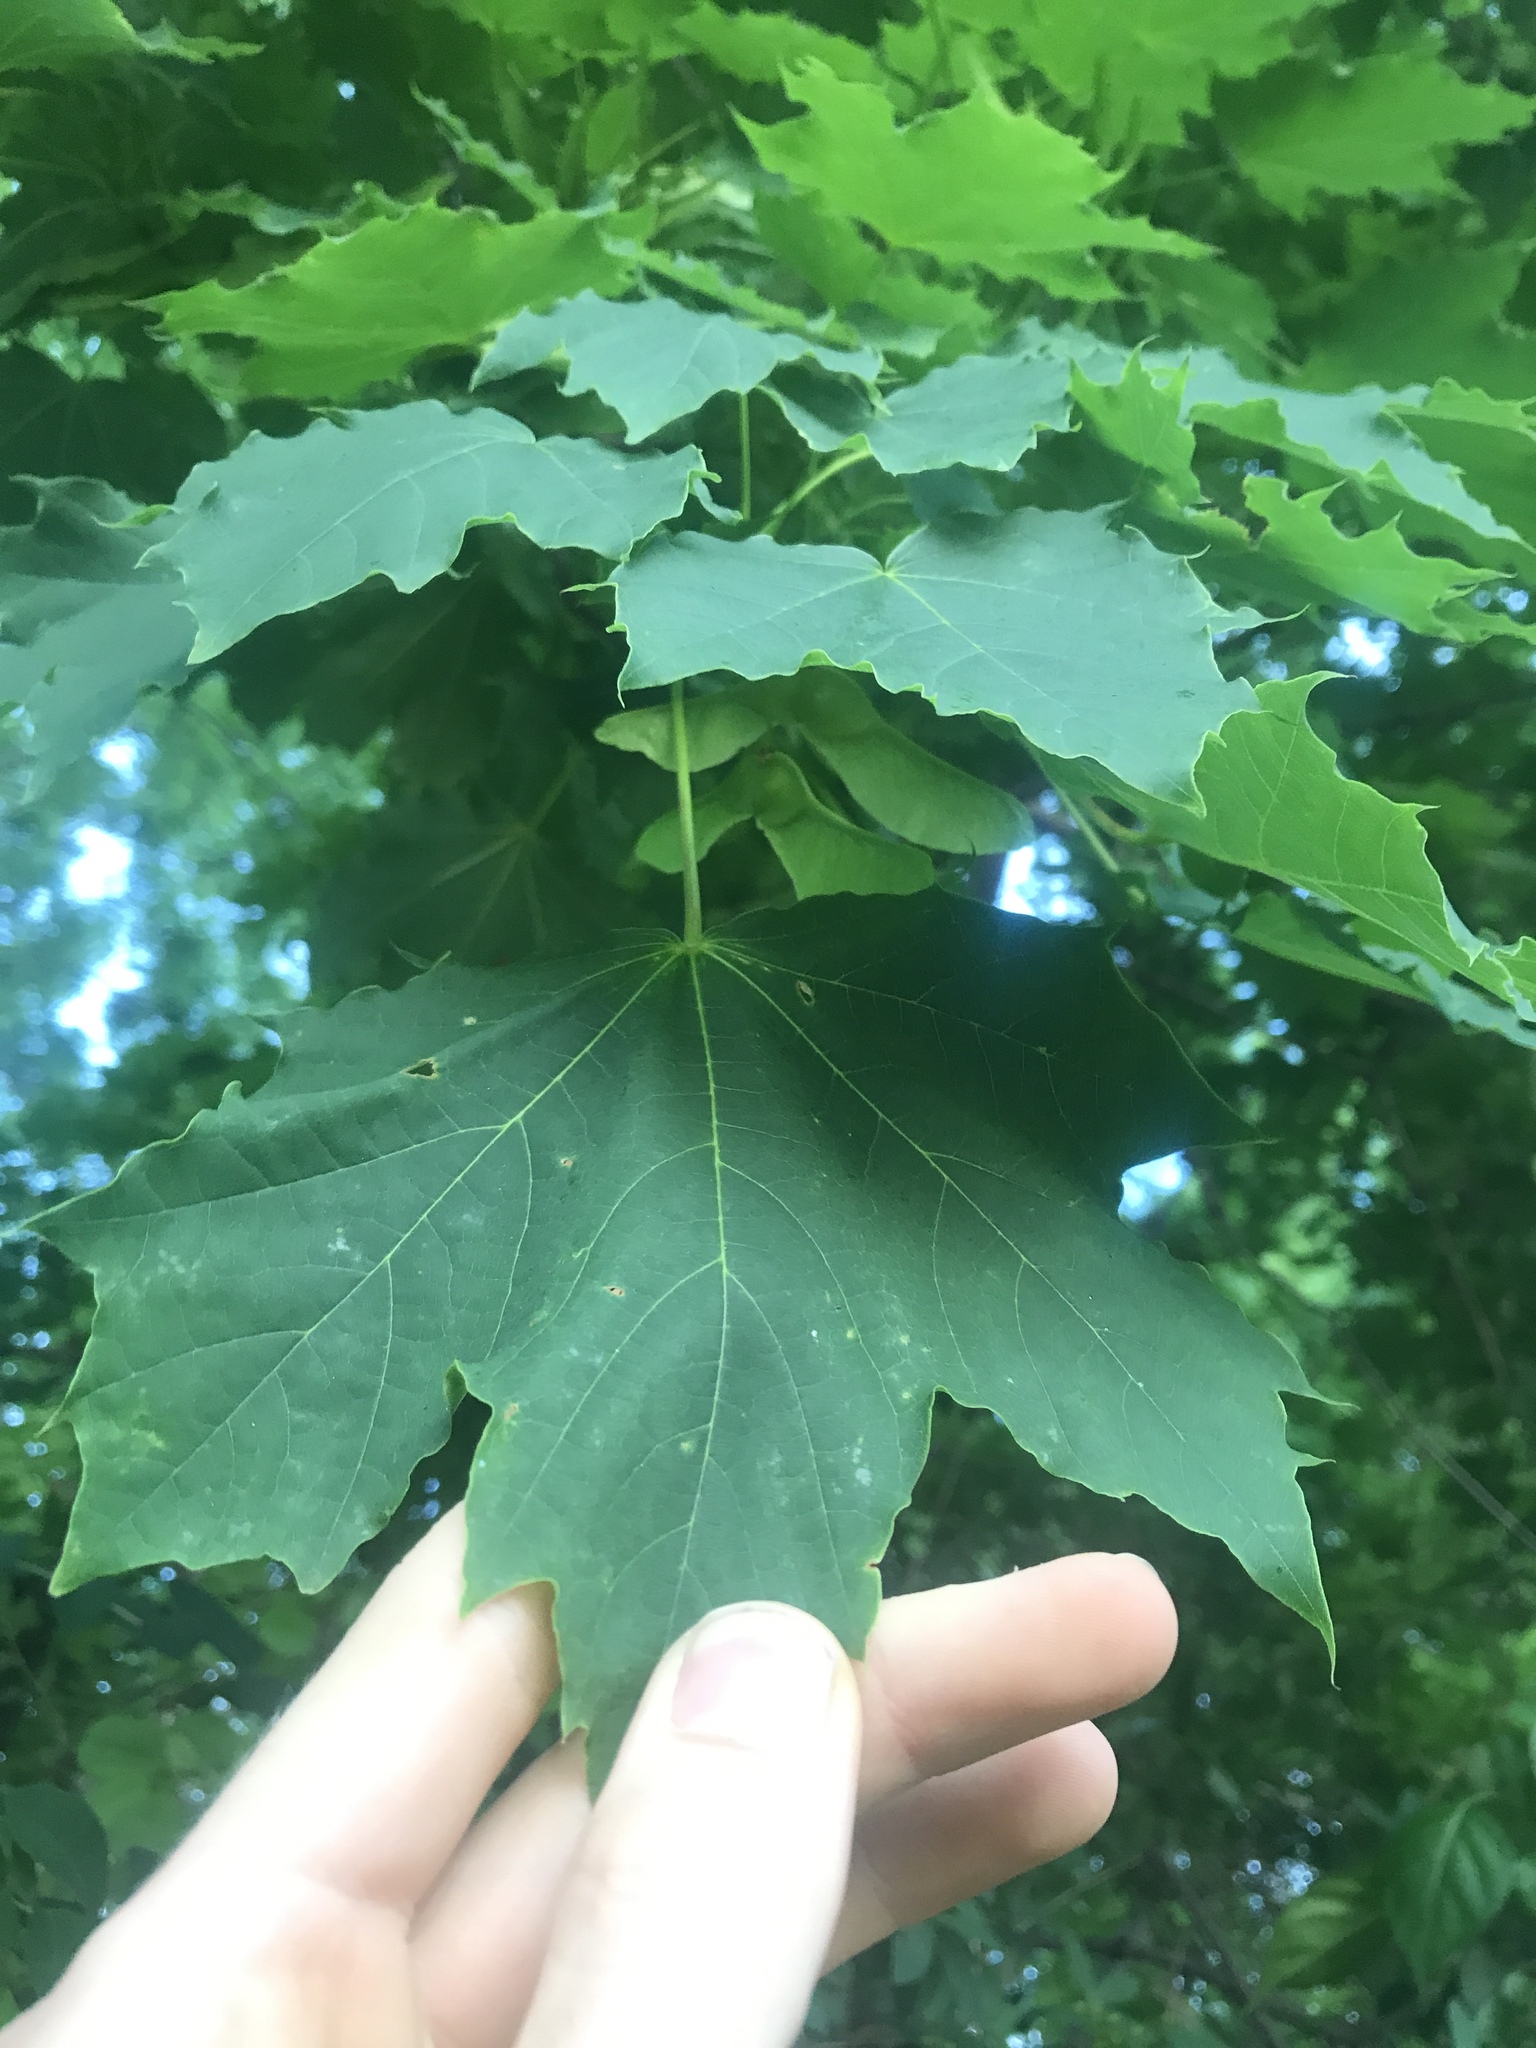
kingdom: Plantae
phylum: Tracheophyta
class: Magnoliopsida
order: Sapindales
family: Sapindaceae
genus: Acer
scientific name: Acer platanoides
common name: Norway maple
